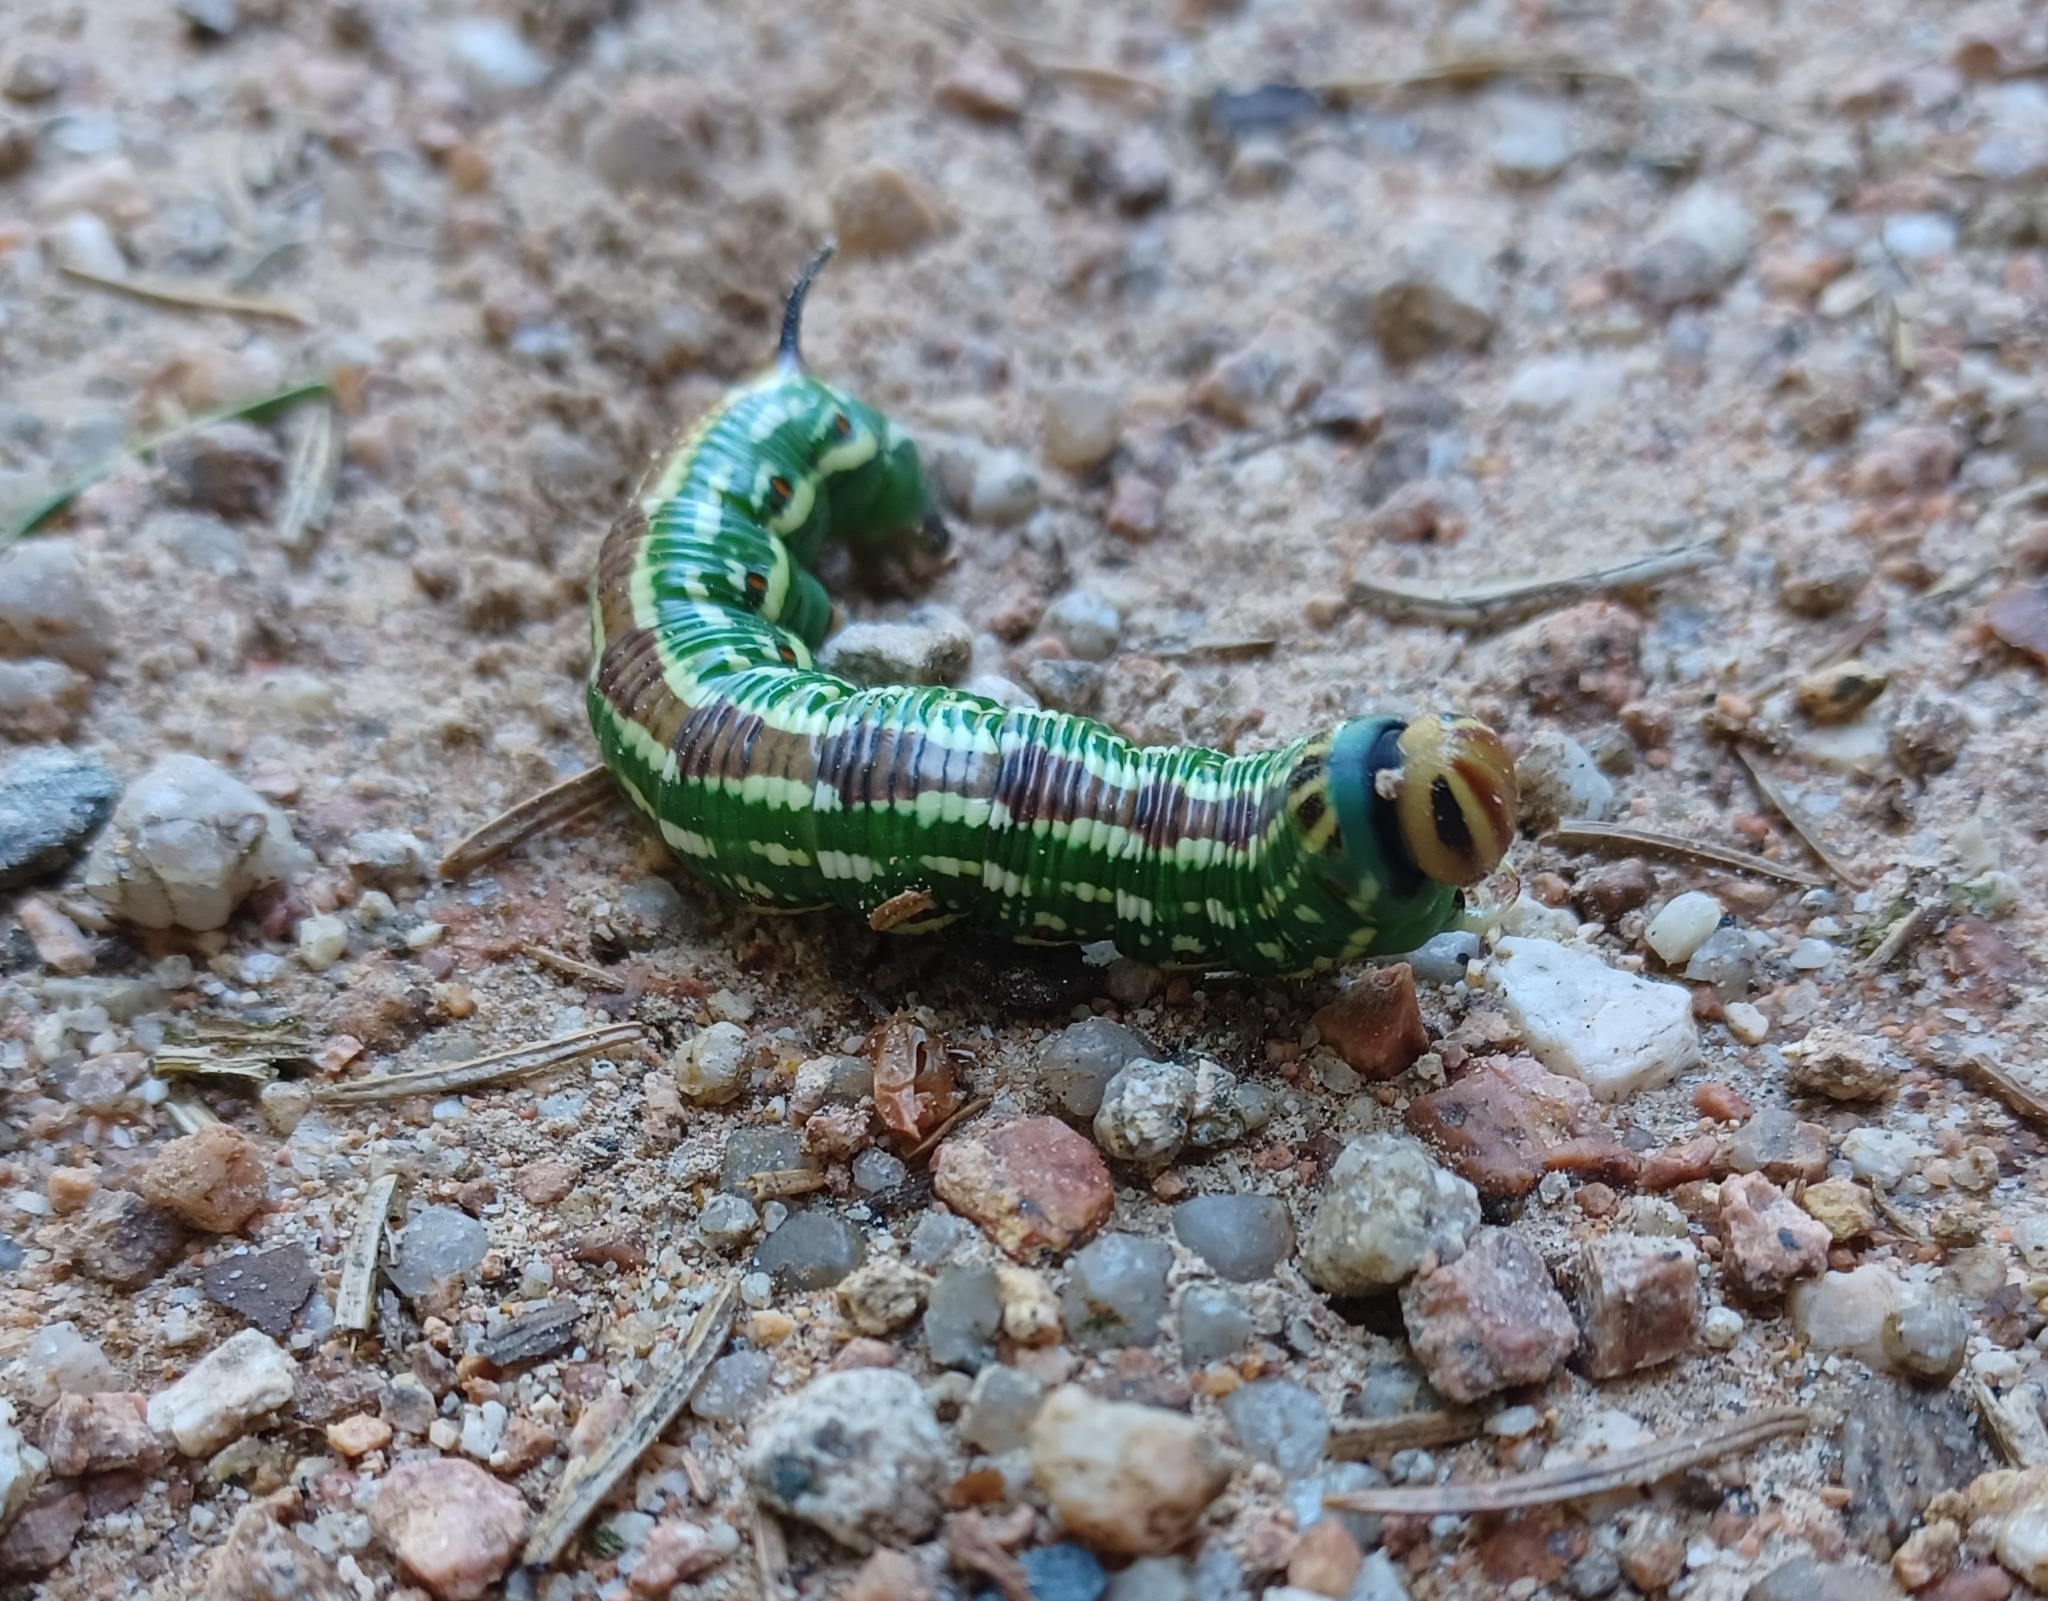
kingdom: Animalia
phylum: Arthropoda
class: Insecta
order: Lepidoptera
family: Sphingidae
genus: Sphinx
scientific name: Sphinx pinastri
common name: Pine hawk-moth
